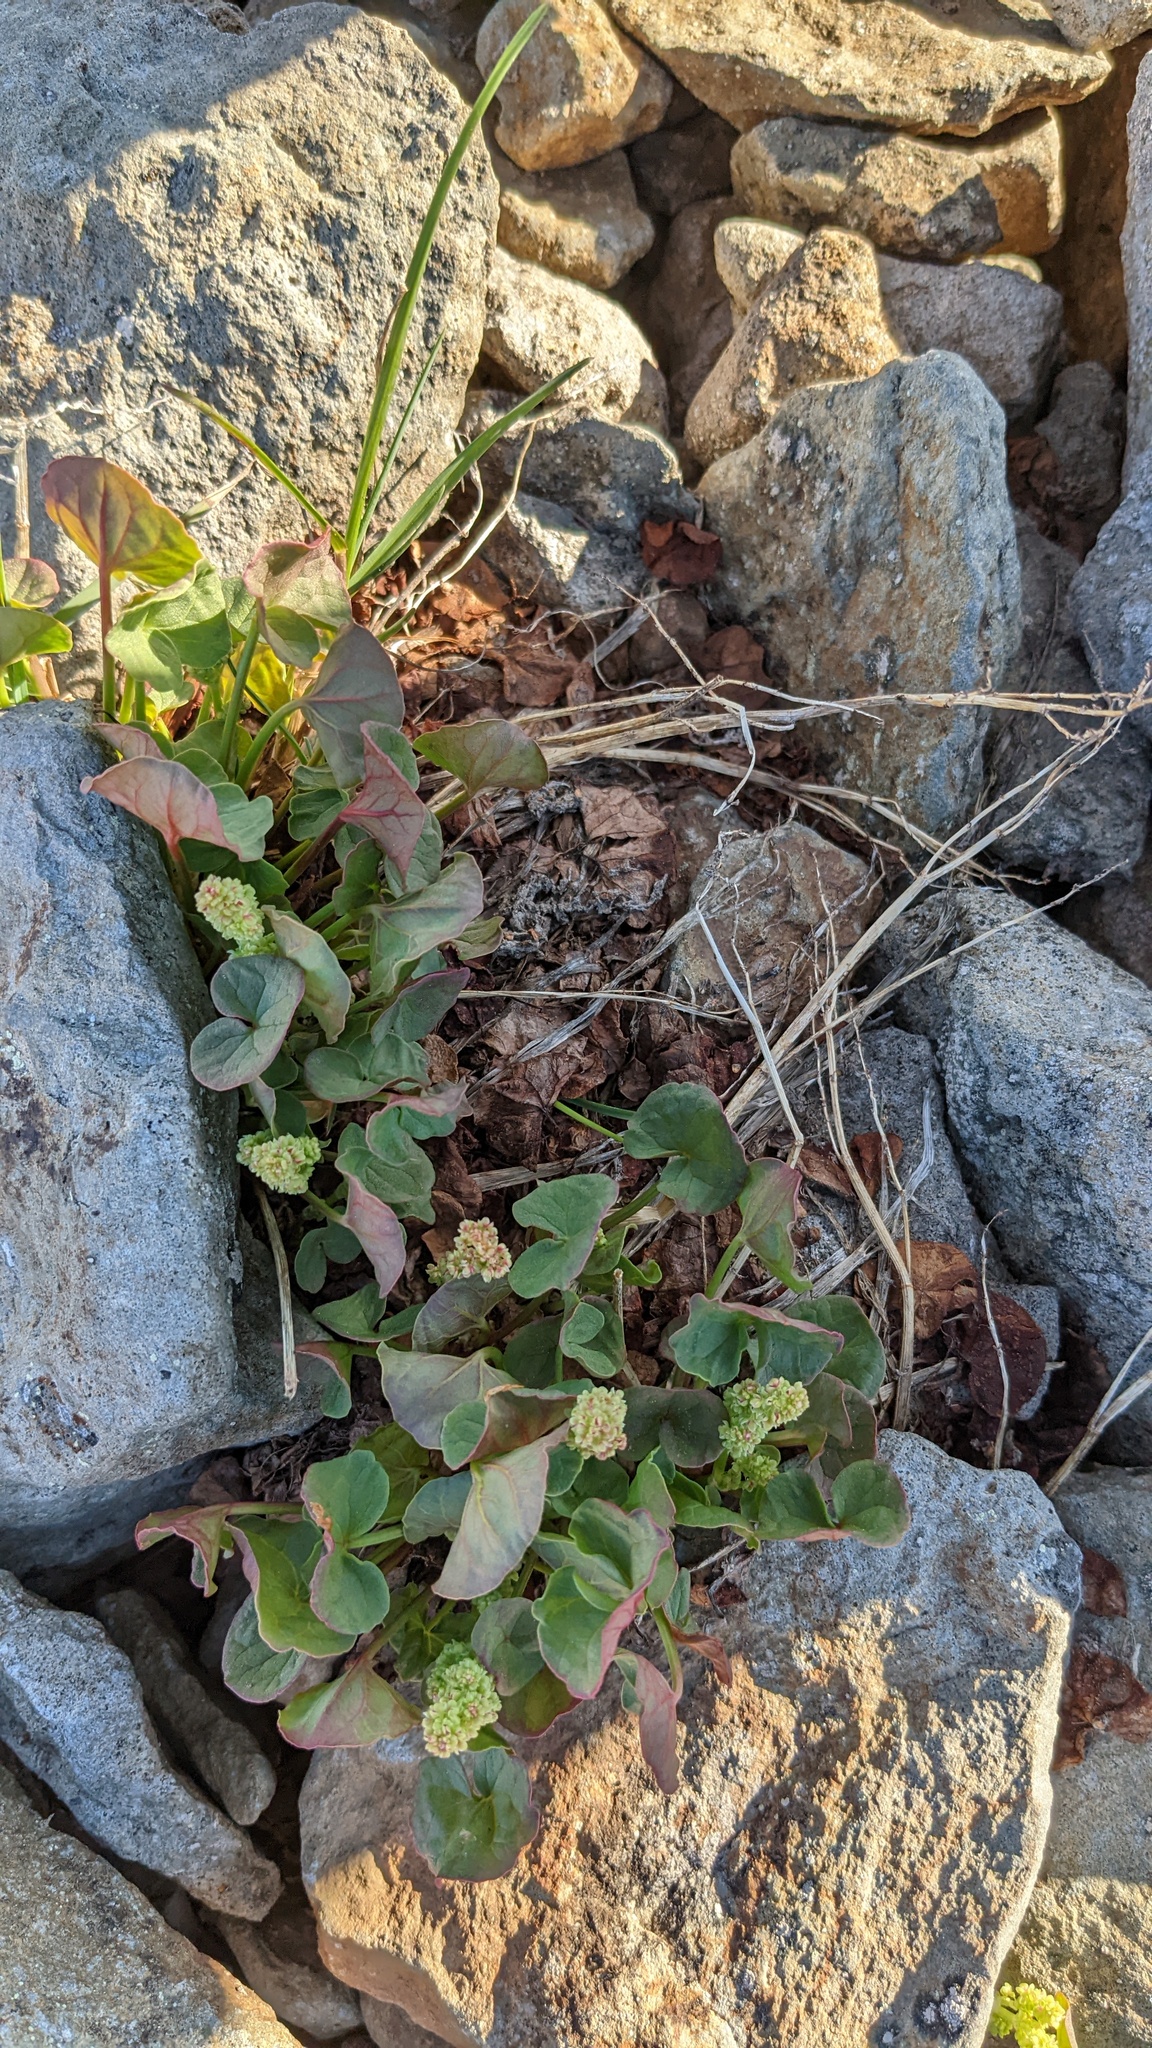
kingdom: Plantae
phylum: Tracheophyta
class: Magnoliopsida
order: Caryophyllales
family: Polygonaceae
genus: Oxyria
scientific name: Oxyria digyna
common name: Alpine mountain-sorrel
